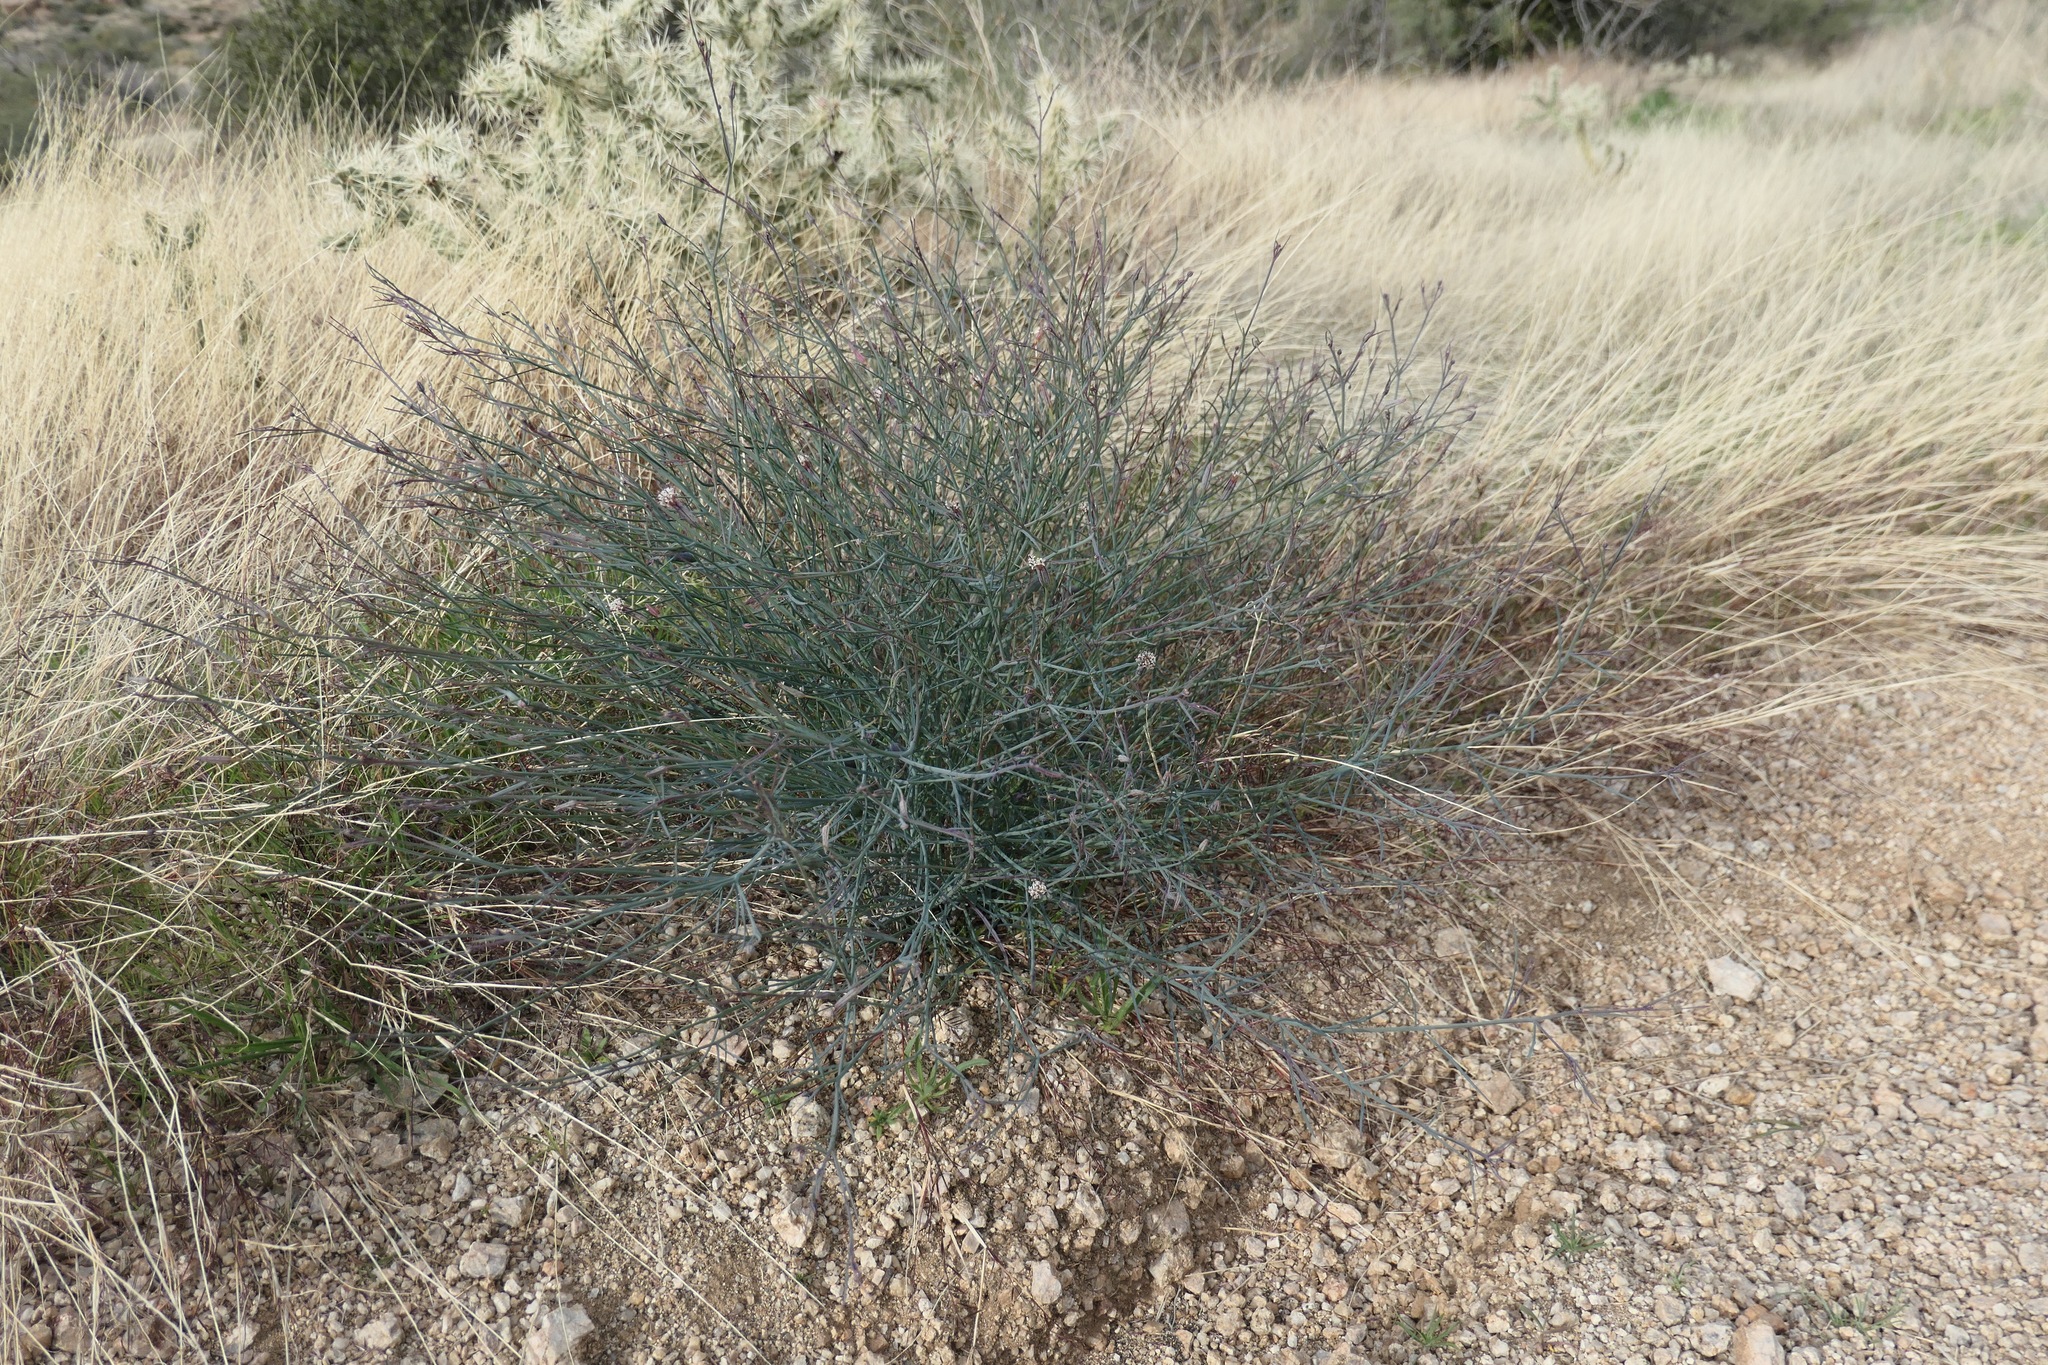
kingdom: Plantae
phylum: Tracheophyta
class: Magnoliopsida
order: Asterales
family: Asteraceae
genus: Porophyllum
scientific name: Porophyllum gracile
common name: Odora
